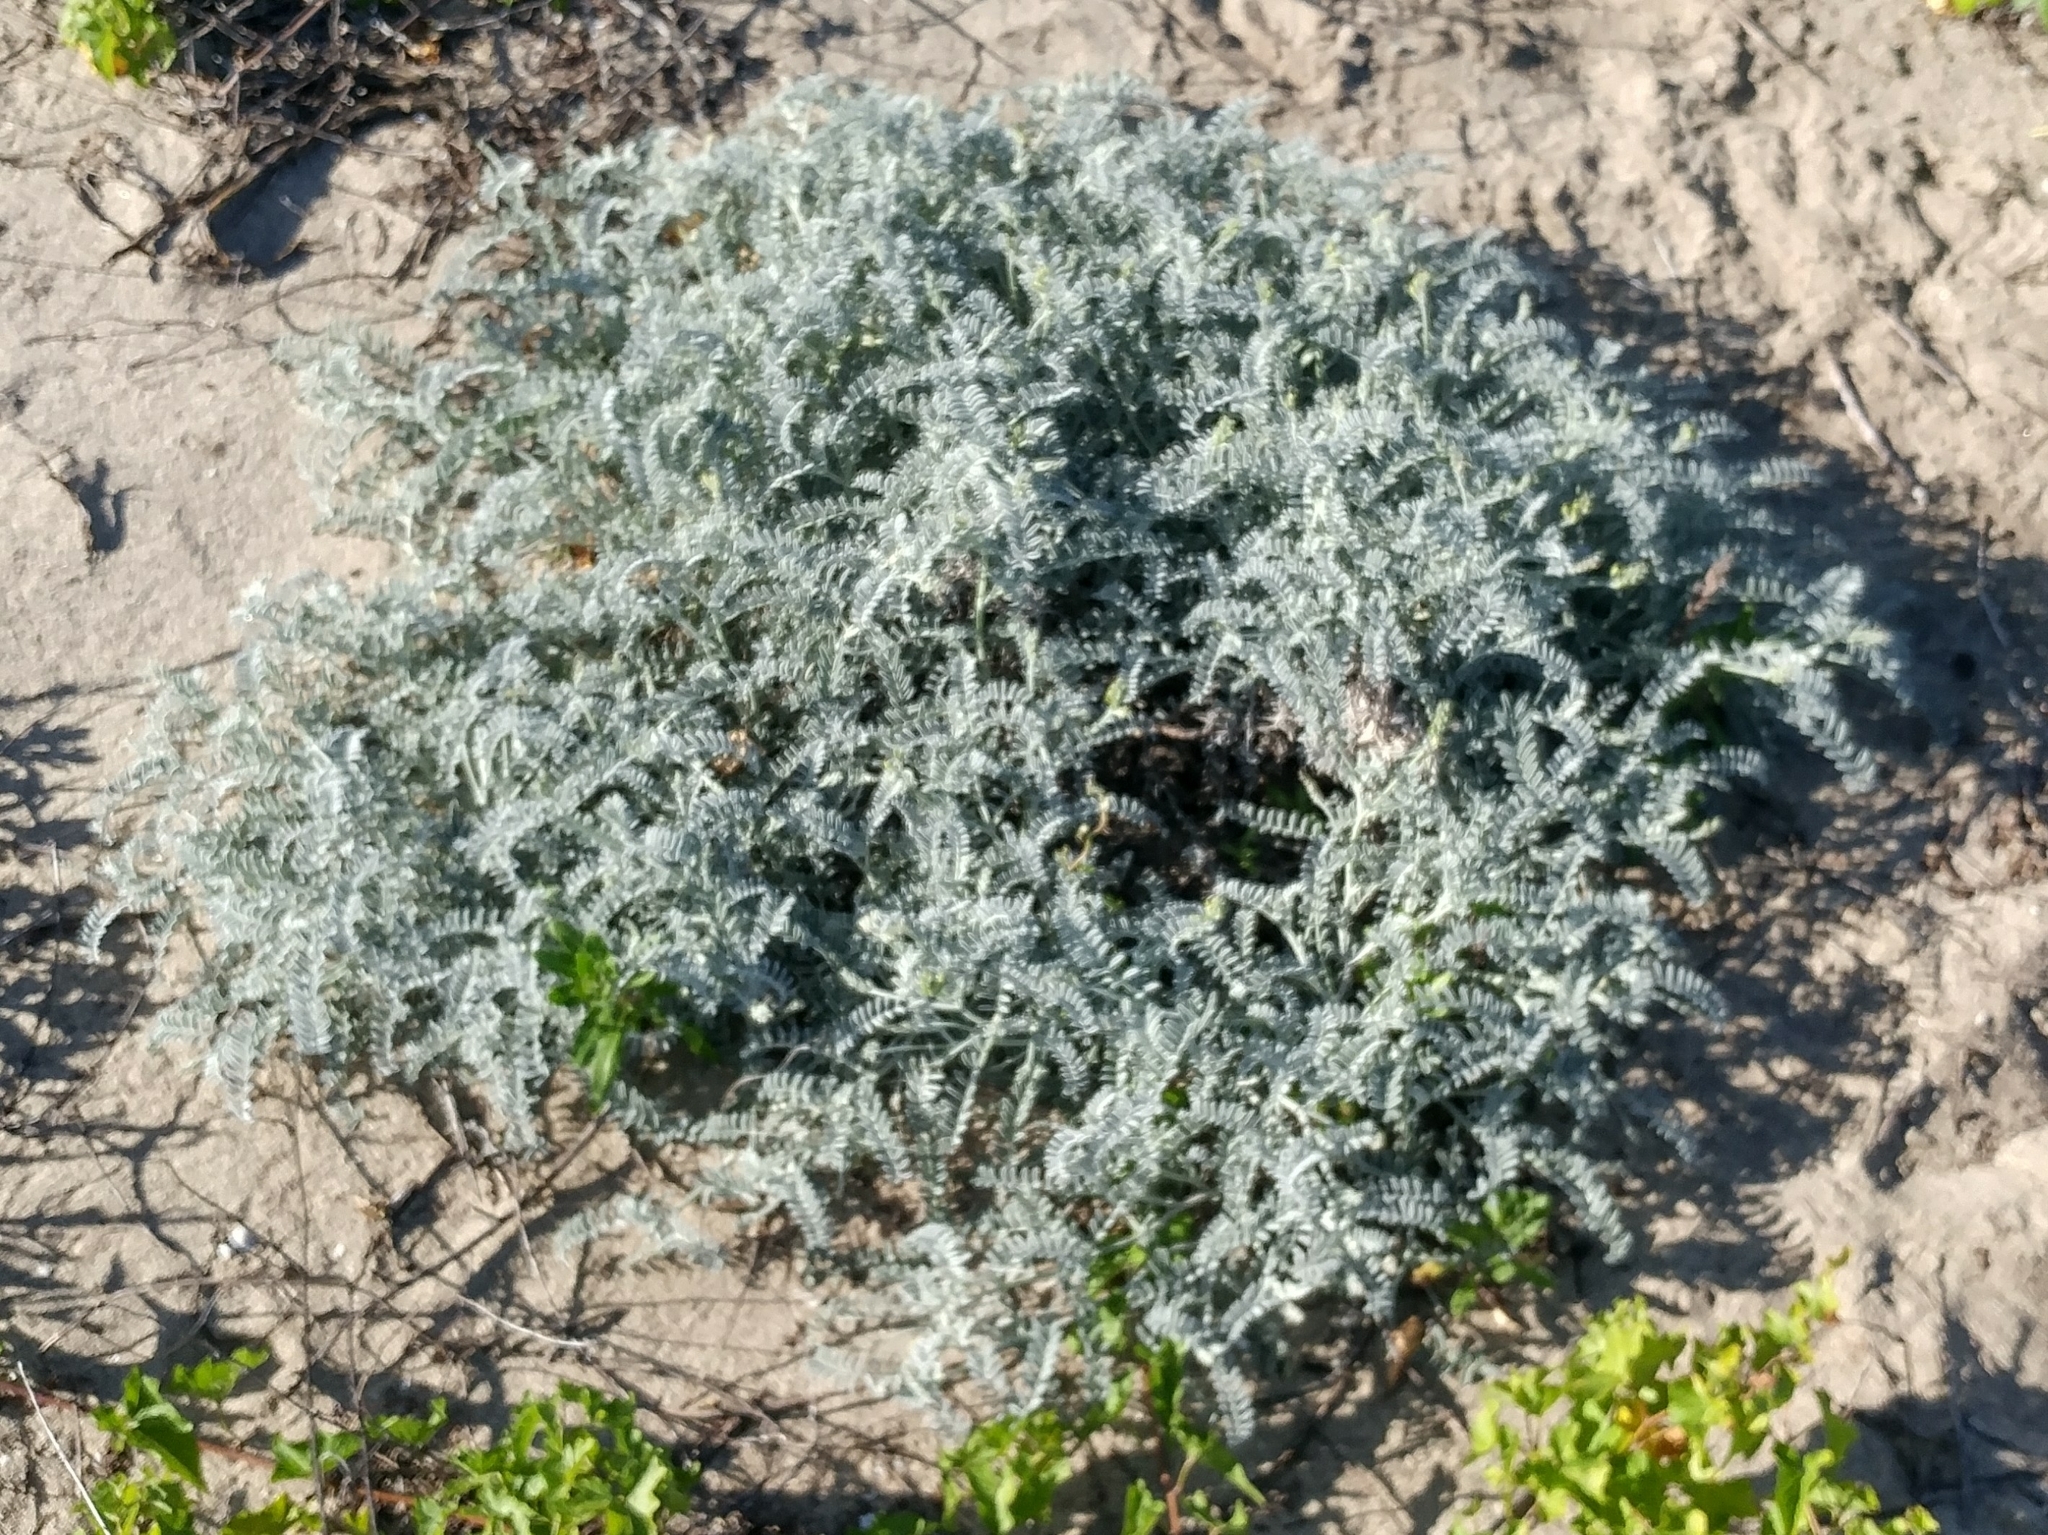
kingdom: Plantae
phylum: Tracheophyta
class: Magnoliopsida
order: Fabales
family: Fabaceae
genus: Astragalus
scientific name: Astragalus miguelensis
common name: San miguel milk-vetch
